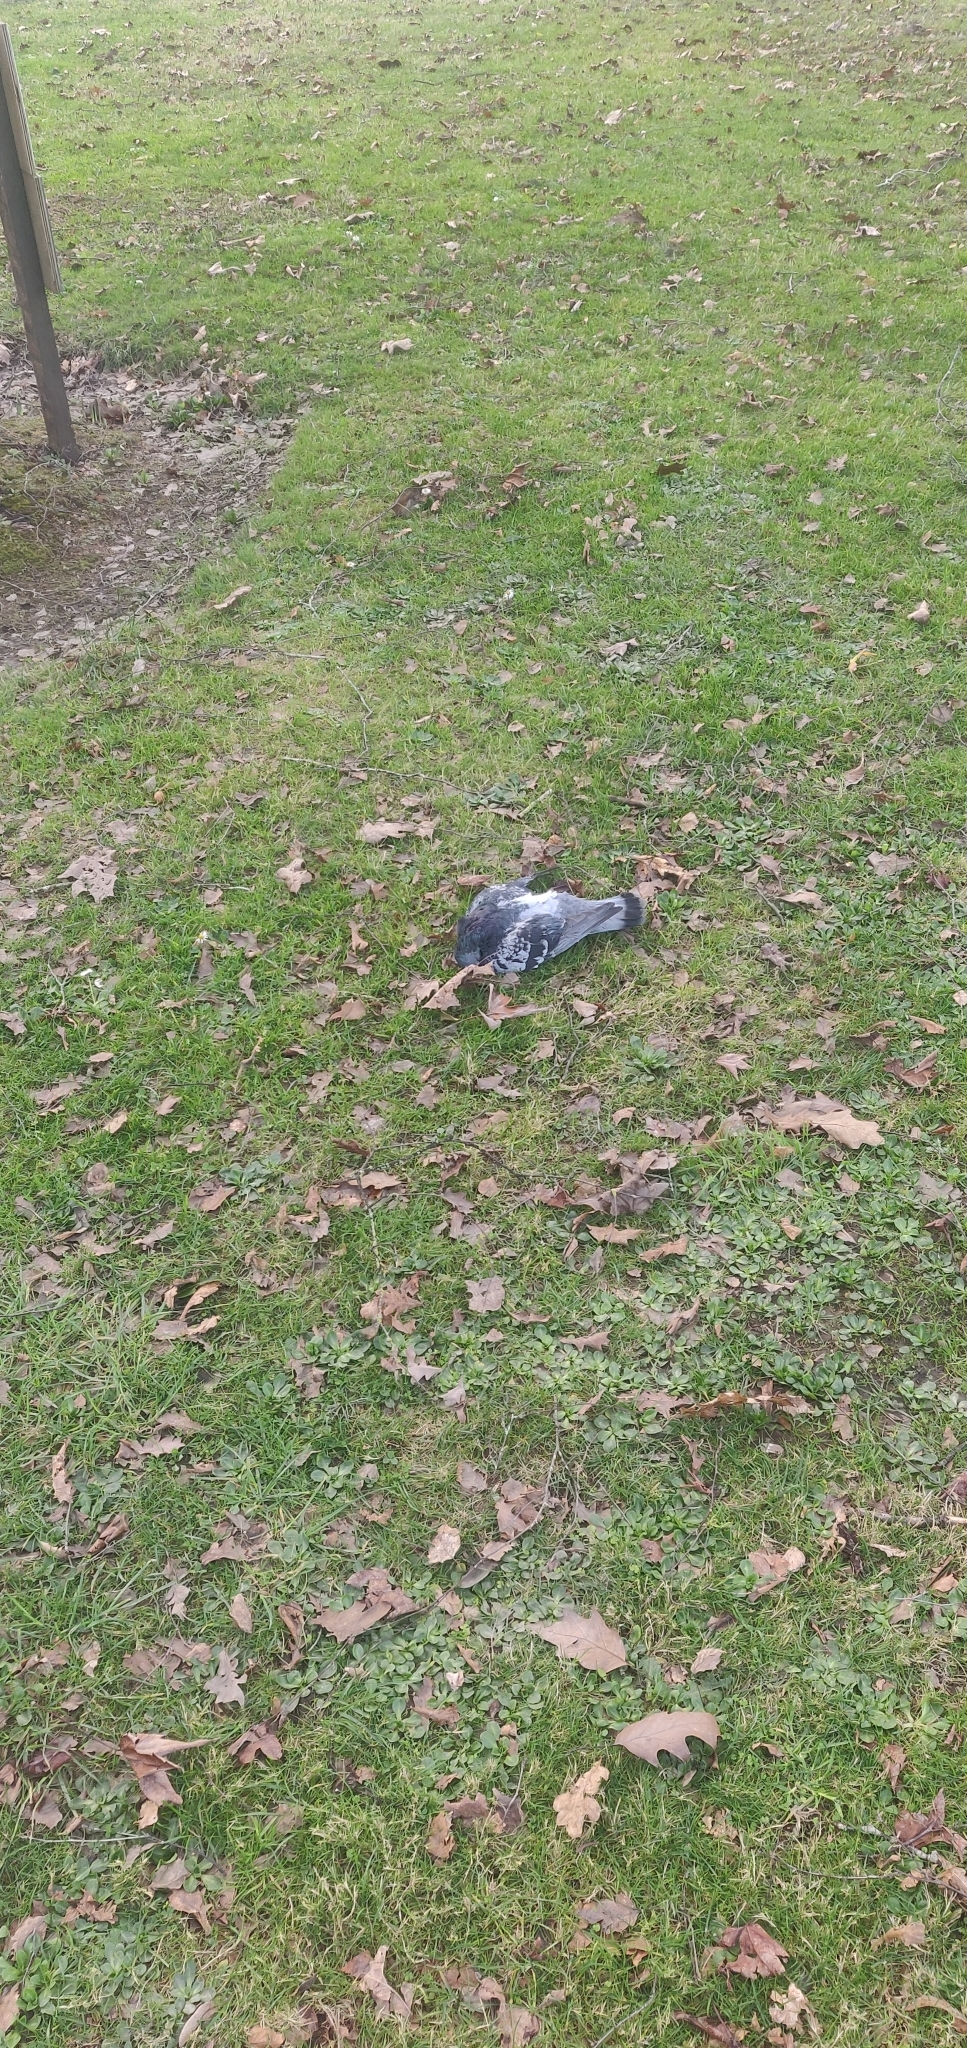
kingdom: Animalia
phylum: Chordata
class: Aves
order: Columbiformes
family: Columbidae
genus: Columba
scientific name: Columba livia
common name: Rock pigeon
